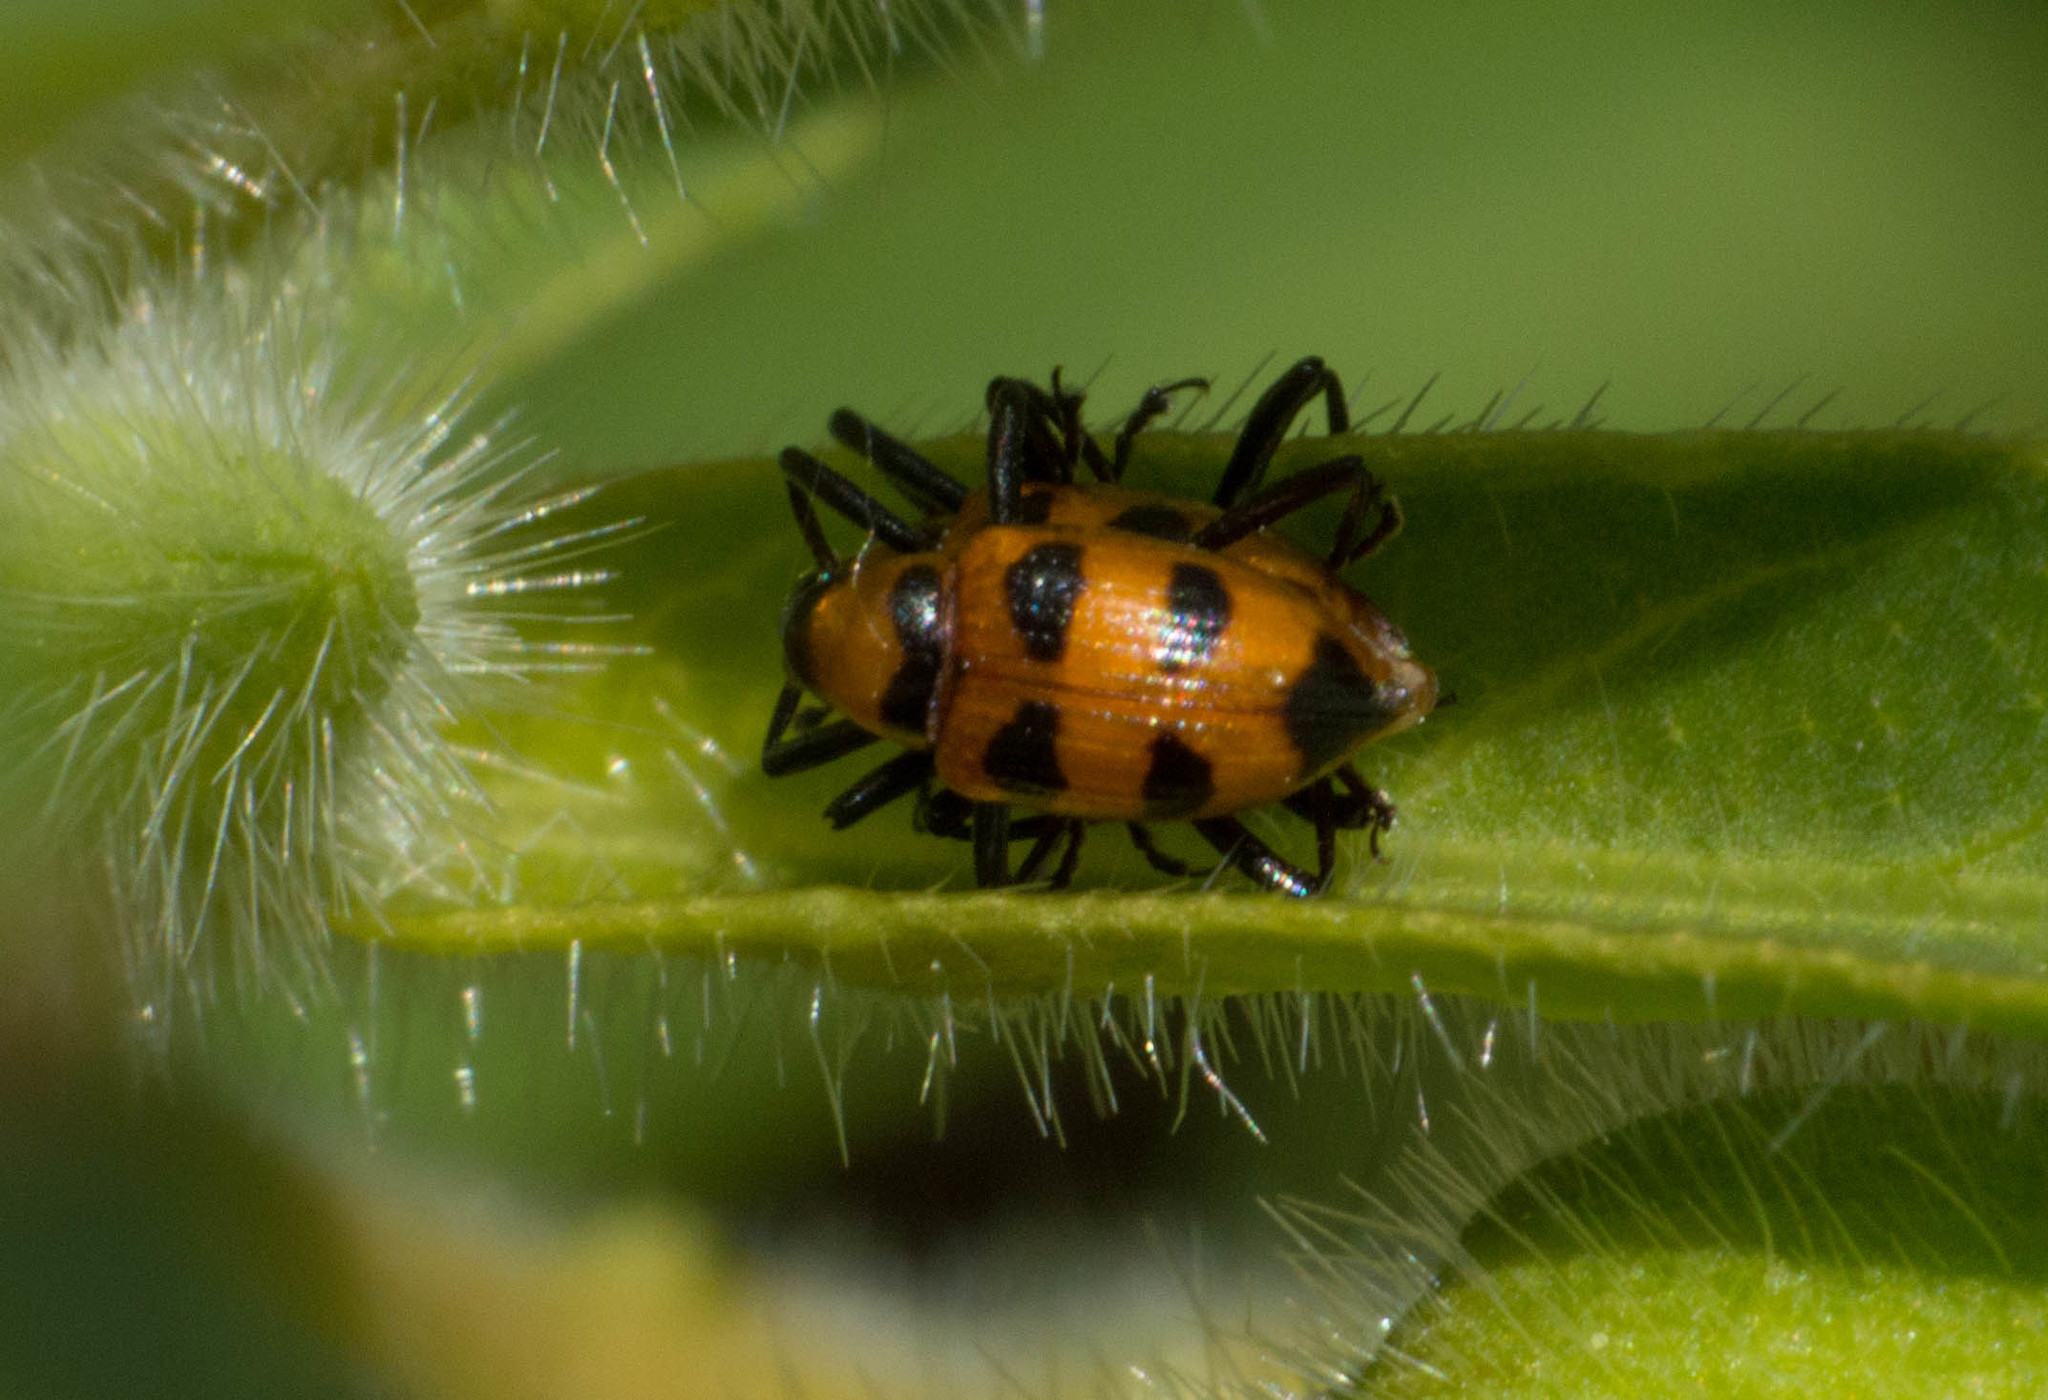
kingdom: Animalia
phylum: Arthropoda
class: Insecta
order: Coleoptera
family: Curculionidae
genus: Tyloderma
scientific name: Tyloderma nigromaculata
